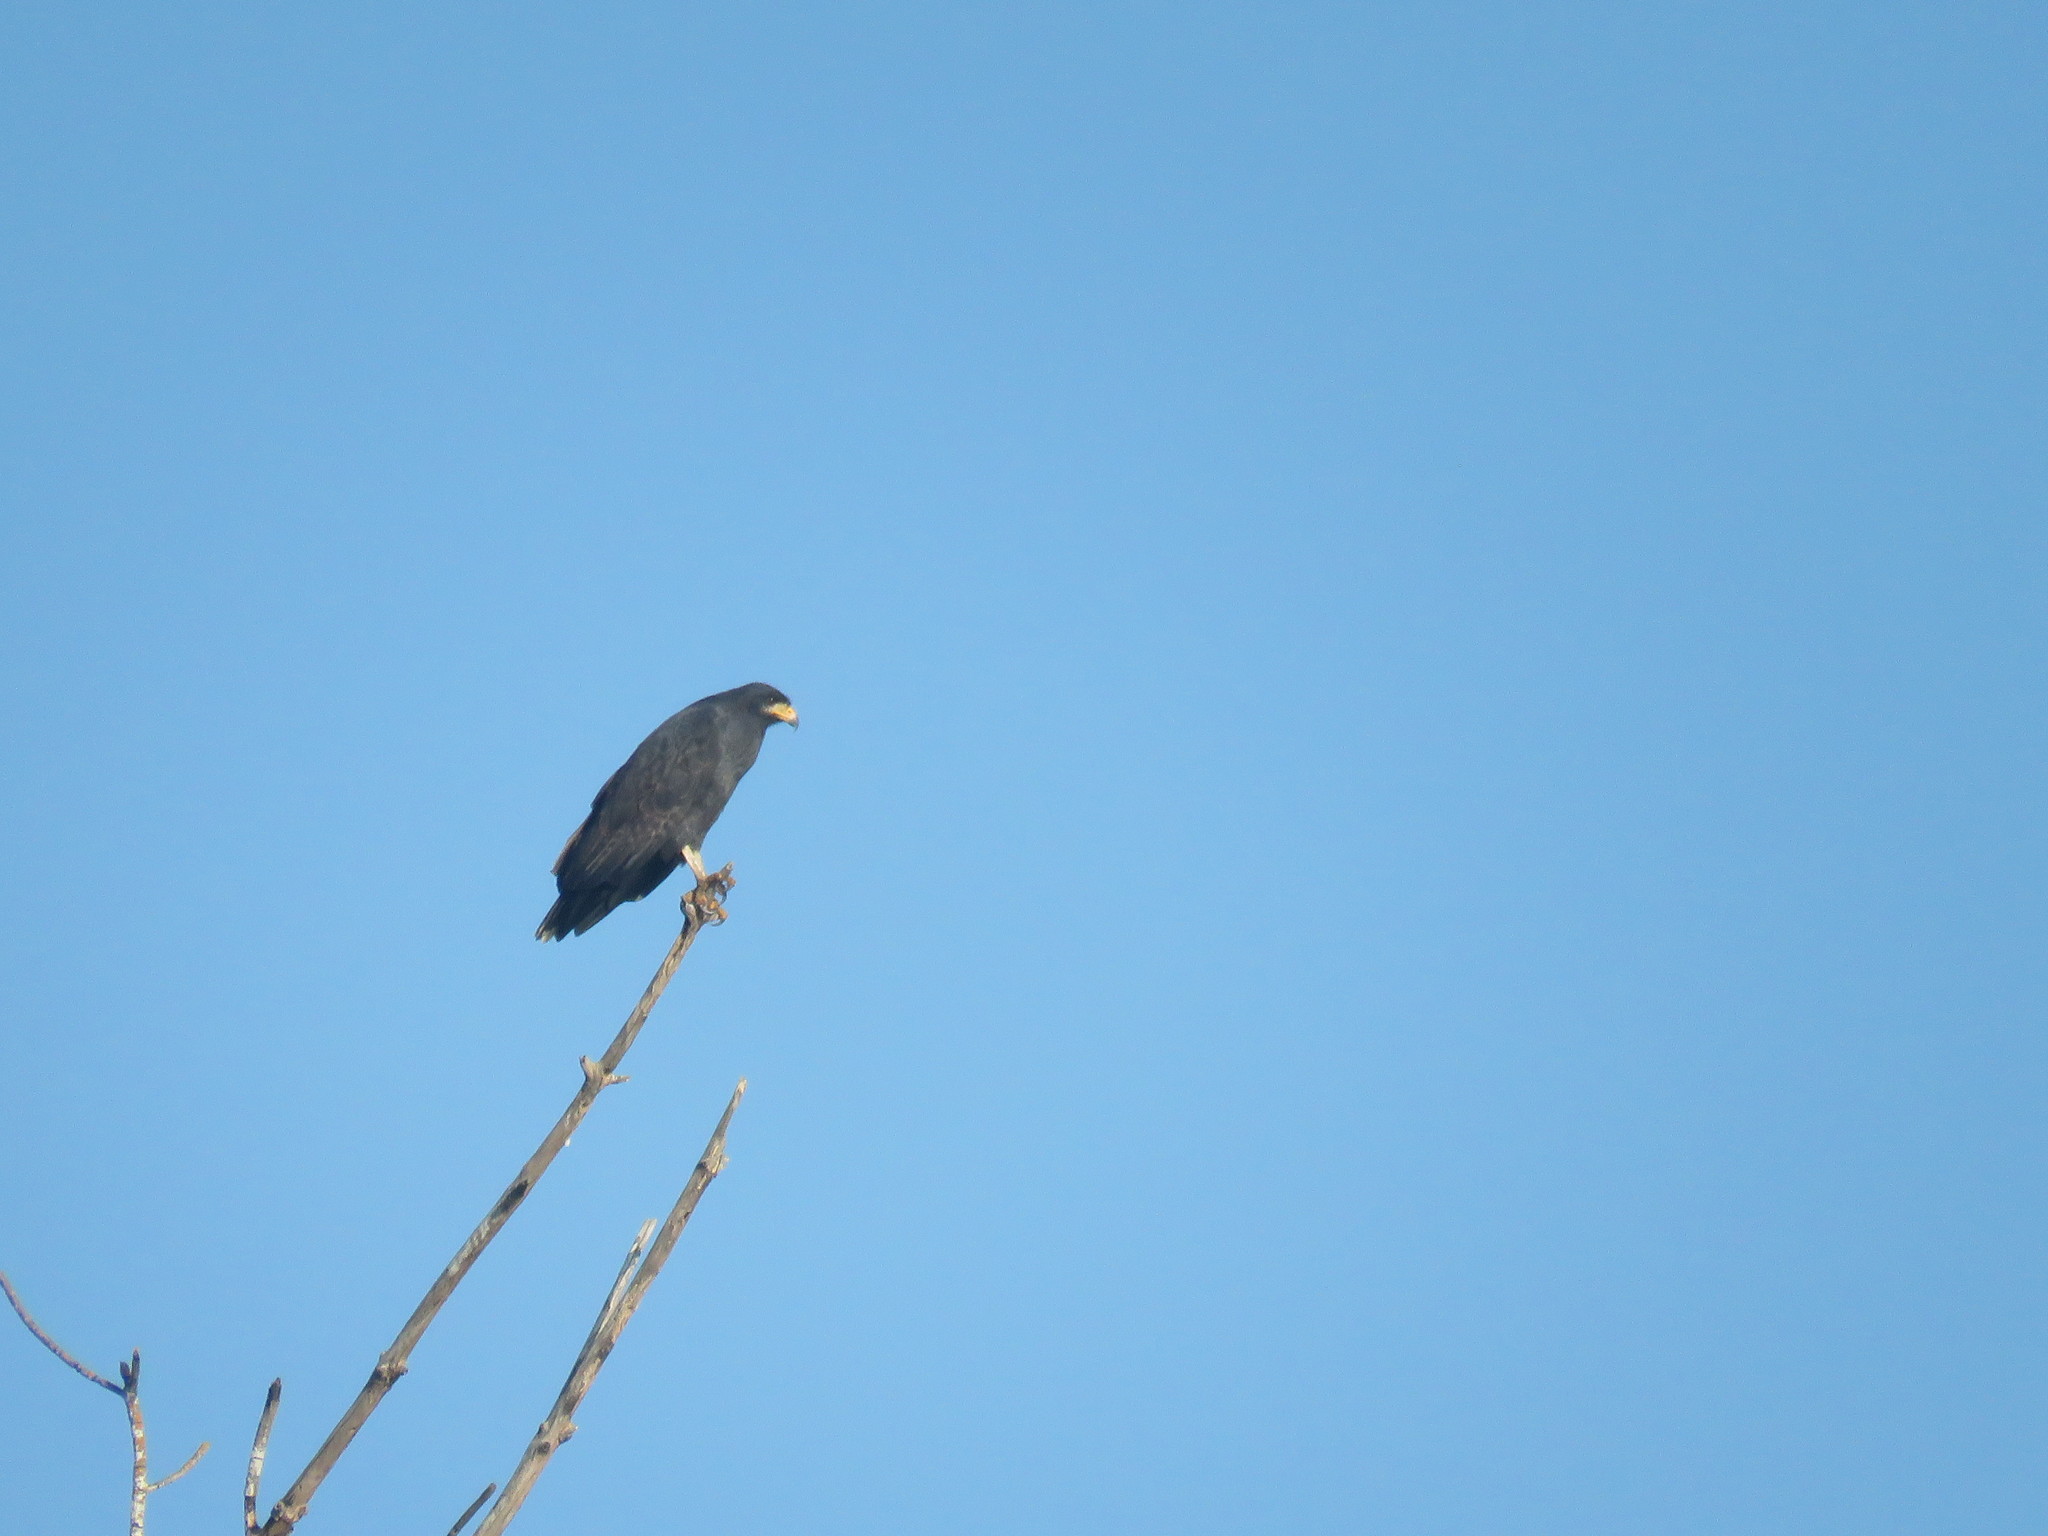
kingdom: Animalia
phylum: Chordata
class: Aves
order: Accipitriformes
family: Accipitridae
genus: Buteogallus
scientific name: Buteogallus anthracinus
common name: Common black hawk
